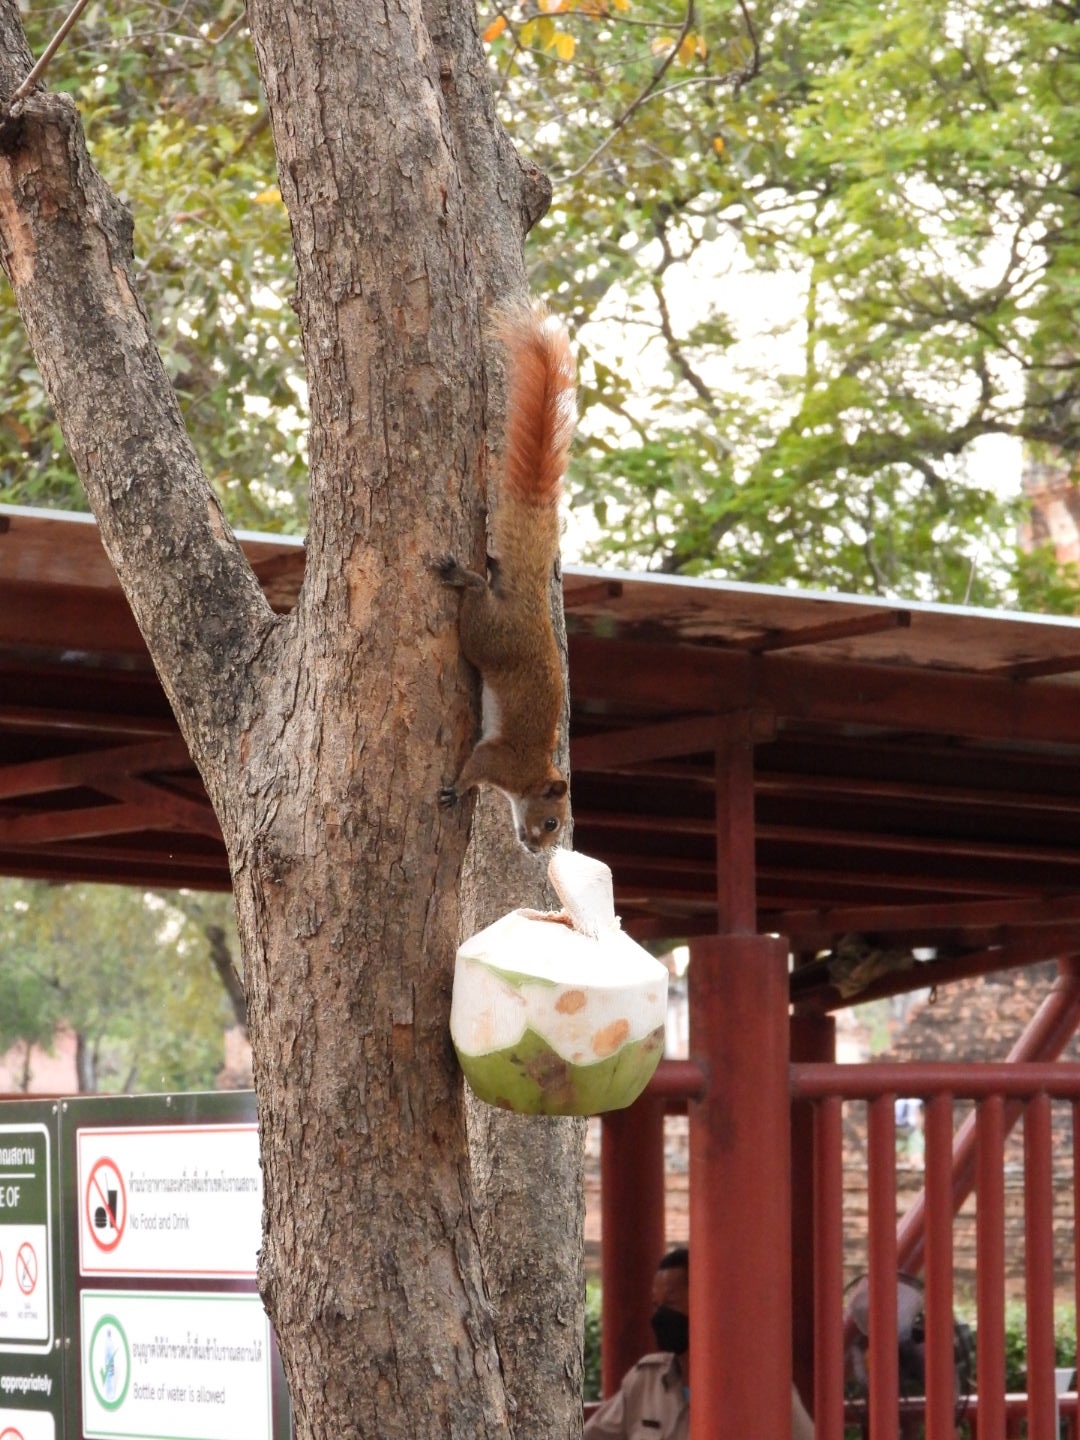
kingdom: Animalia
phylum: Chordata
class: Mammalia
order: Rodentia
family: Sciuridae
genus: Callosciurus
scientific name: Callosciurus finlaysonii
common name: Finlayson's squirrel
